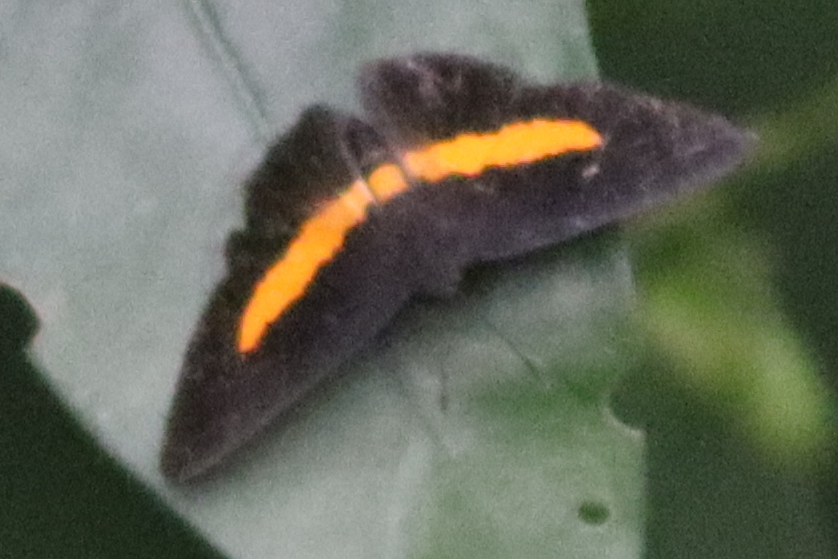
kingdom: Animalia
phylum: Arthropoda
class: Insecta
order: Lepidoptera
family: Riodinidae
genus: Pirascca
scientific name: Pirascca sagaris
